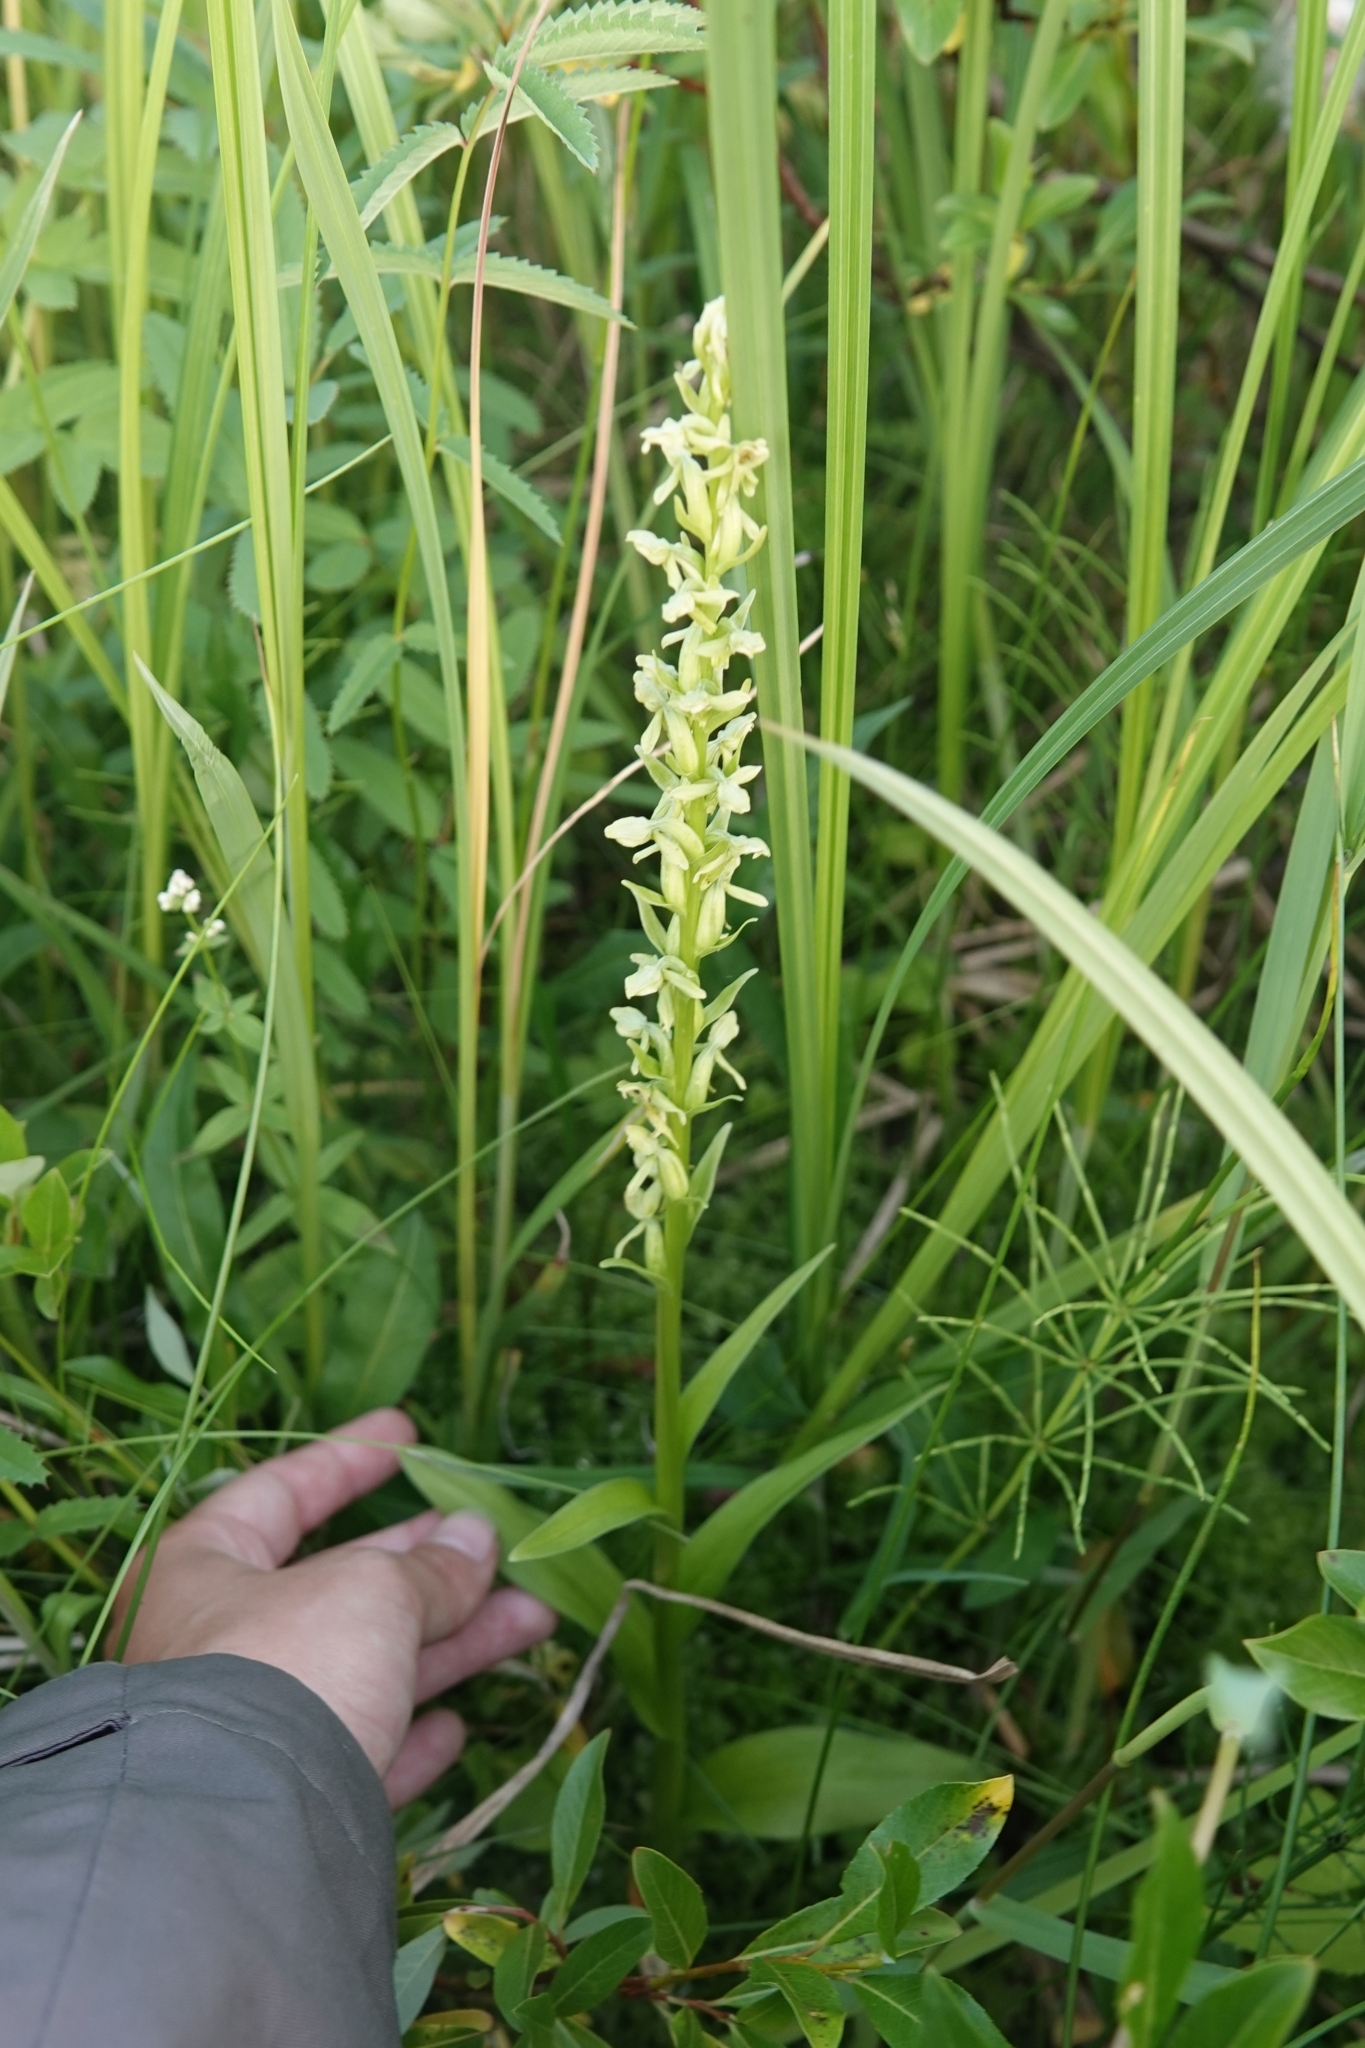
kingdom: Plantae
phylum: Tracheophyta
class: Liliopsida
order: Asparagales
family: Orchidaceae
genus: Platanthera
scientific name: Platanthera convallariifolia
